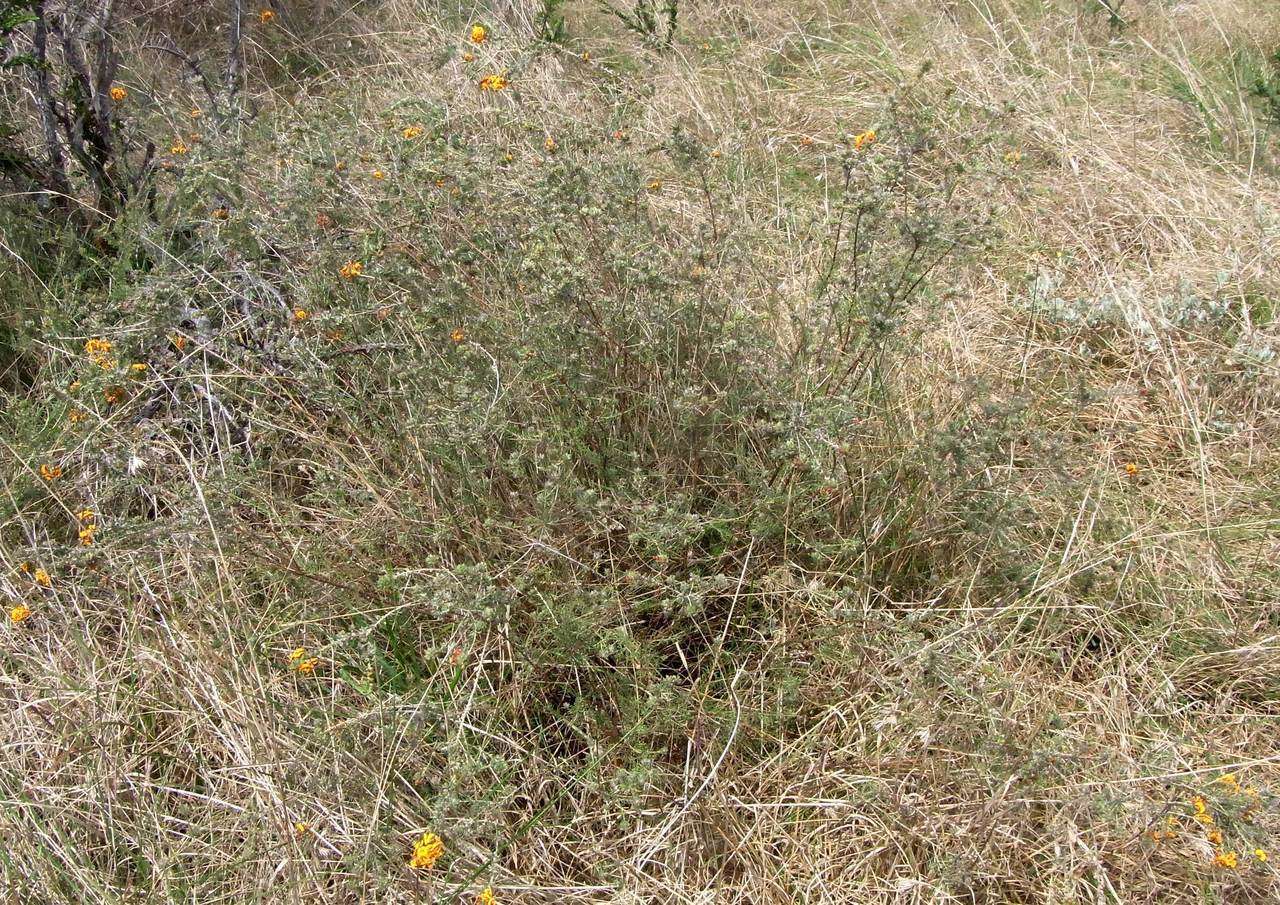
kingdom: Plantae
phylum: Tracheophyta
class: Magnoliopsida
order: Fabales
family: Fabaceae
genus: Dillwynia
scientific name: Dillwynia cinerascens
